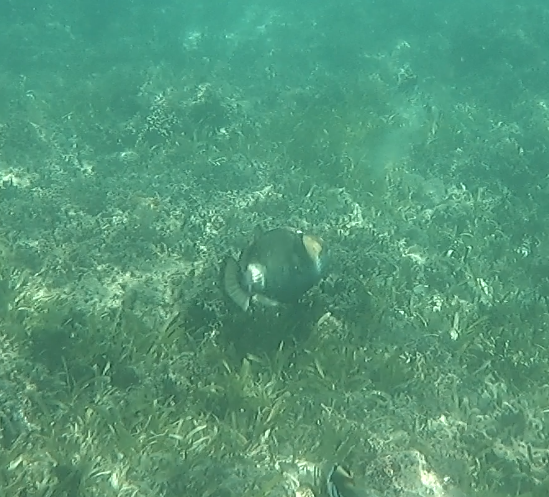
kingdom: Animalia
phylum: Chordata
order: Tetraodontiformes
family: Balistidae
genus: Balistoides
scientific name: Balistoides viridescens
